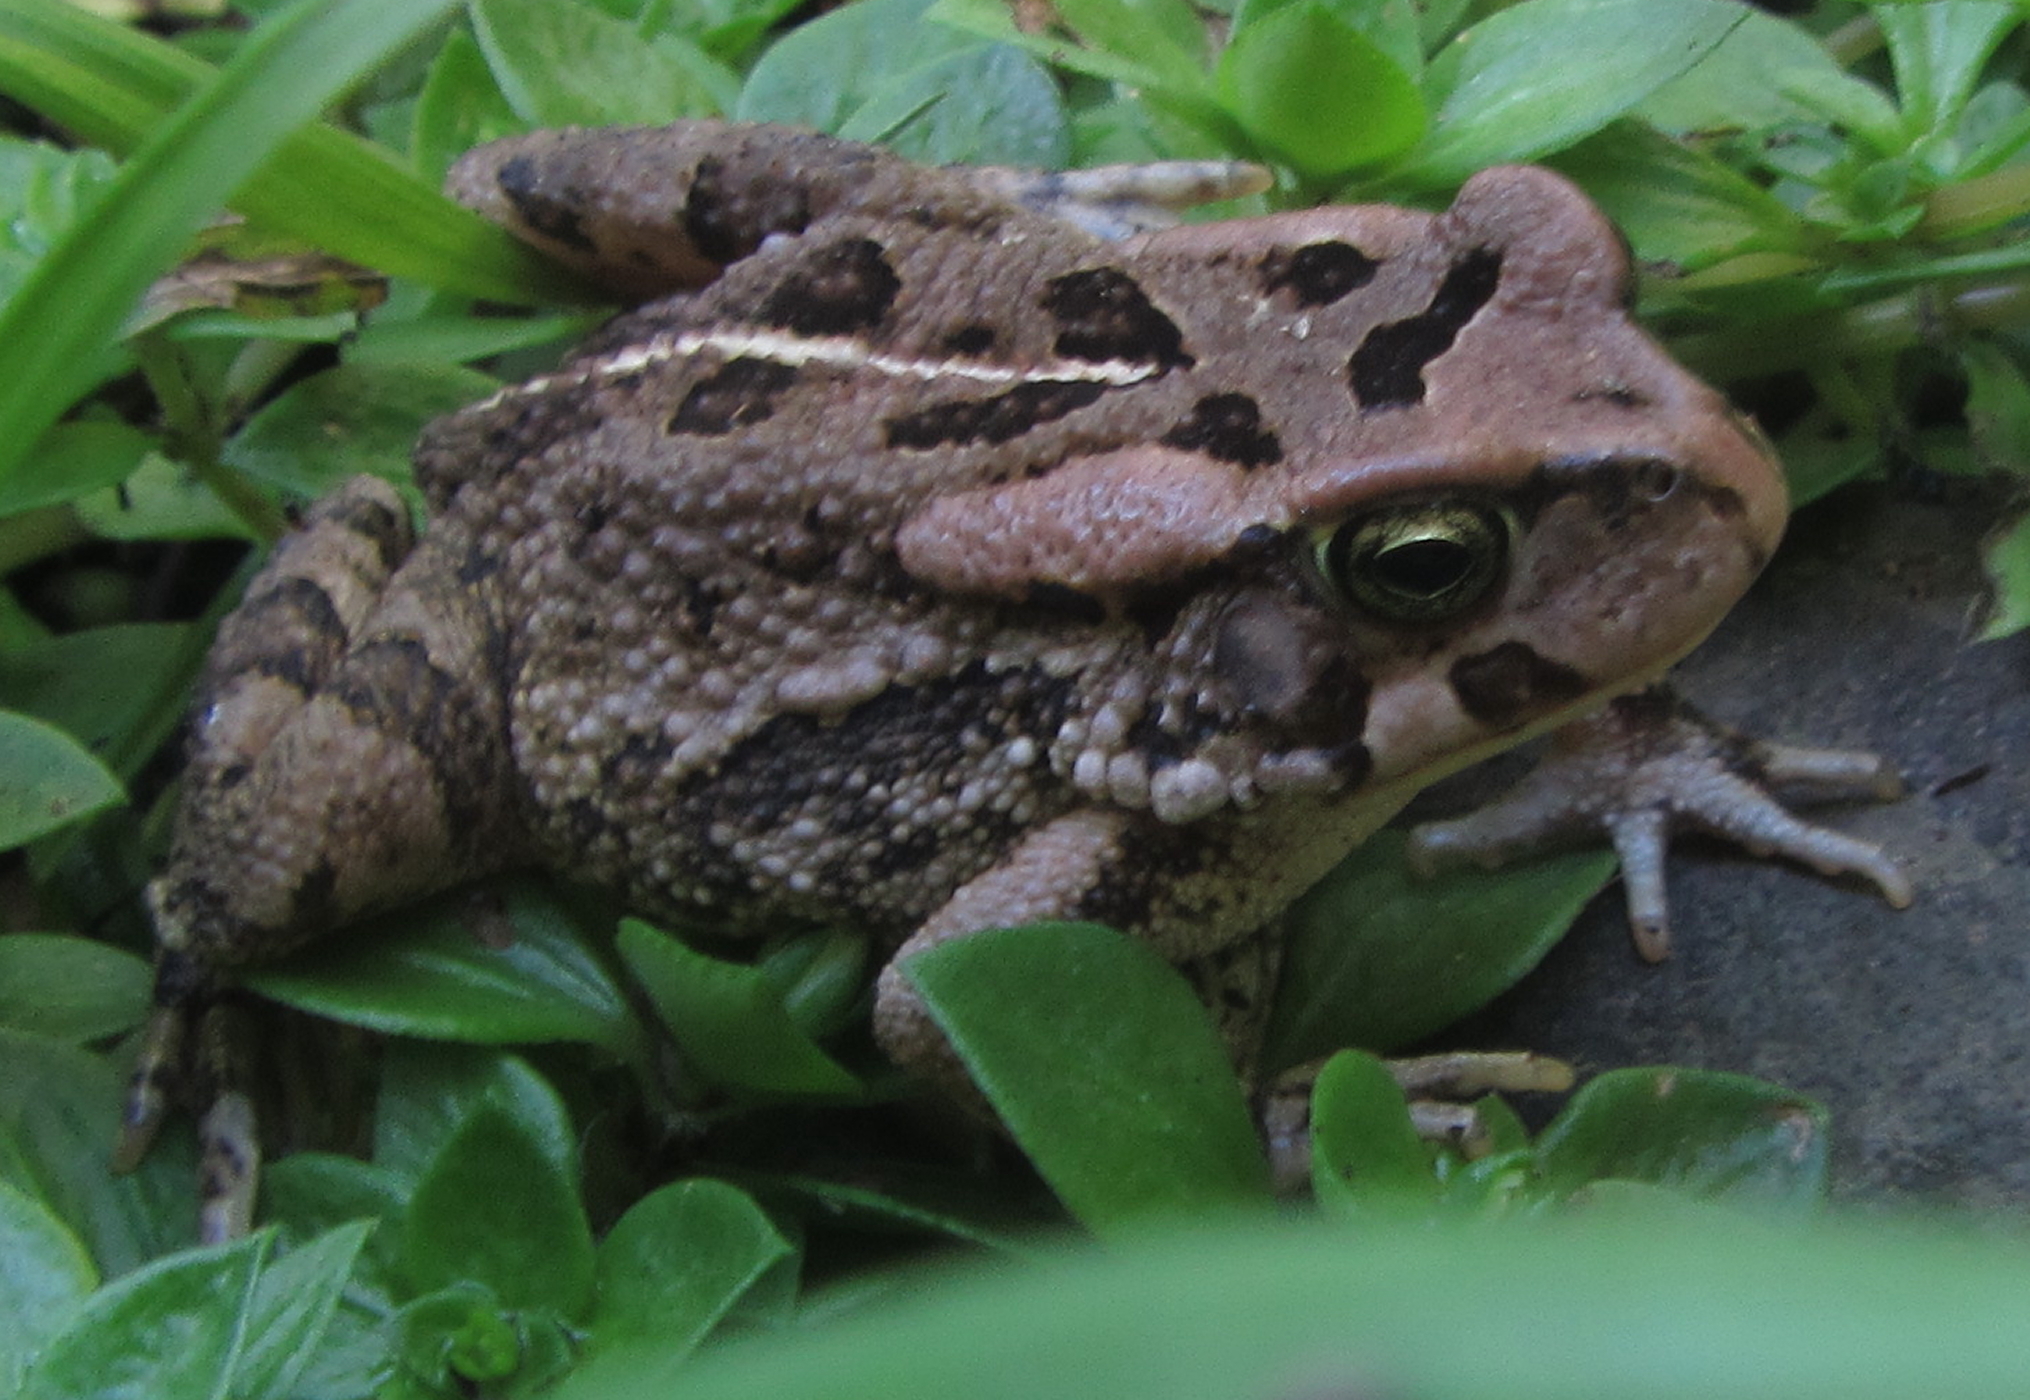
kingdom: Animalia
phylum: Chordata
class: Amphibia
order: Anura
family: Bufonidae
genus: Sclerophrys
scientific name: Sclerophrys capensis
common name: Ranger’s toad
